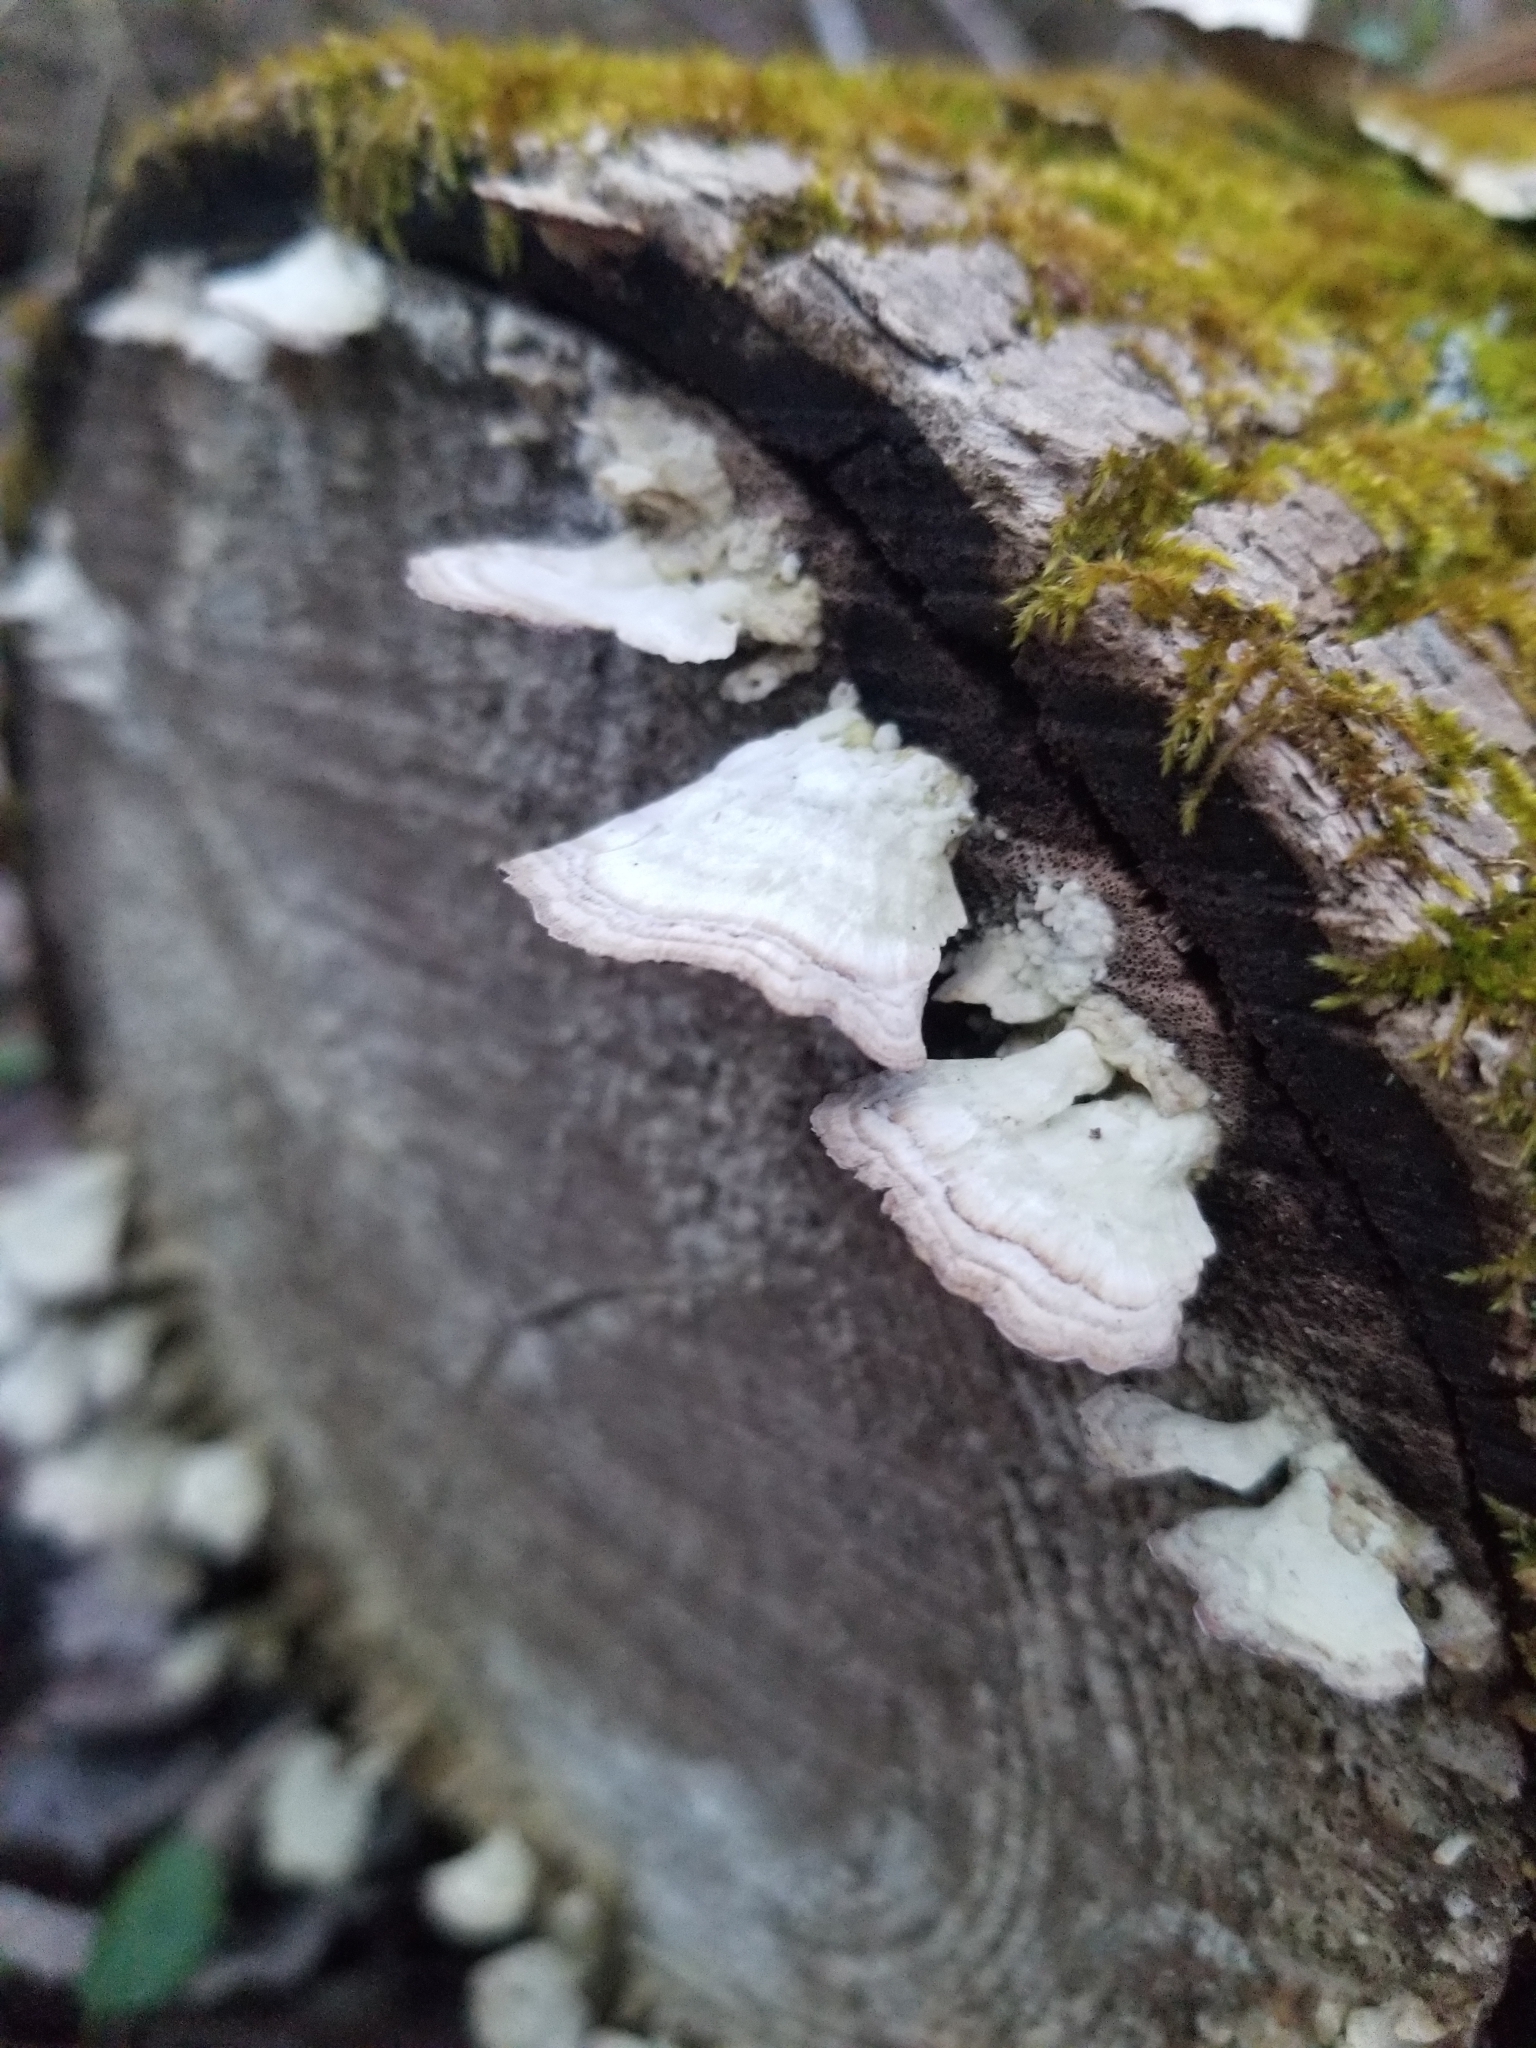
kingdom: Fungi
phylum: Basidiomycota
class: Agaricomycetes
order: Hymenochaetales
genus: Trichaptum
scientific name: Trichaptum biforme
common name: Violet-toothed polypore
